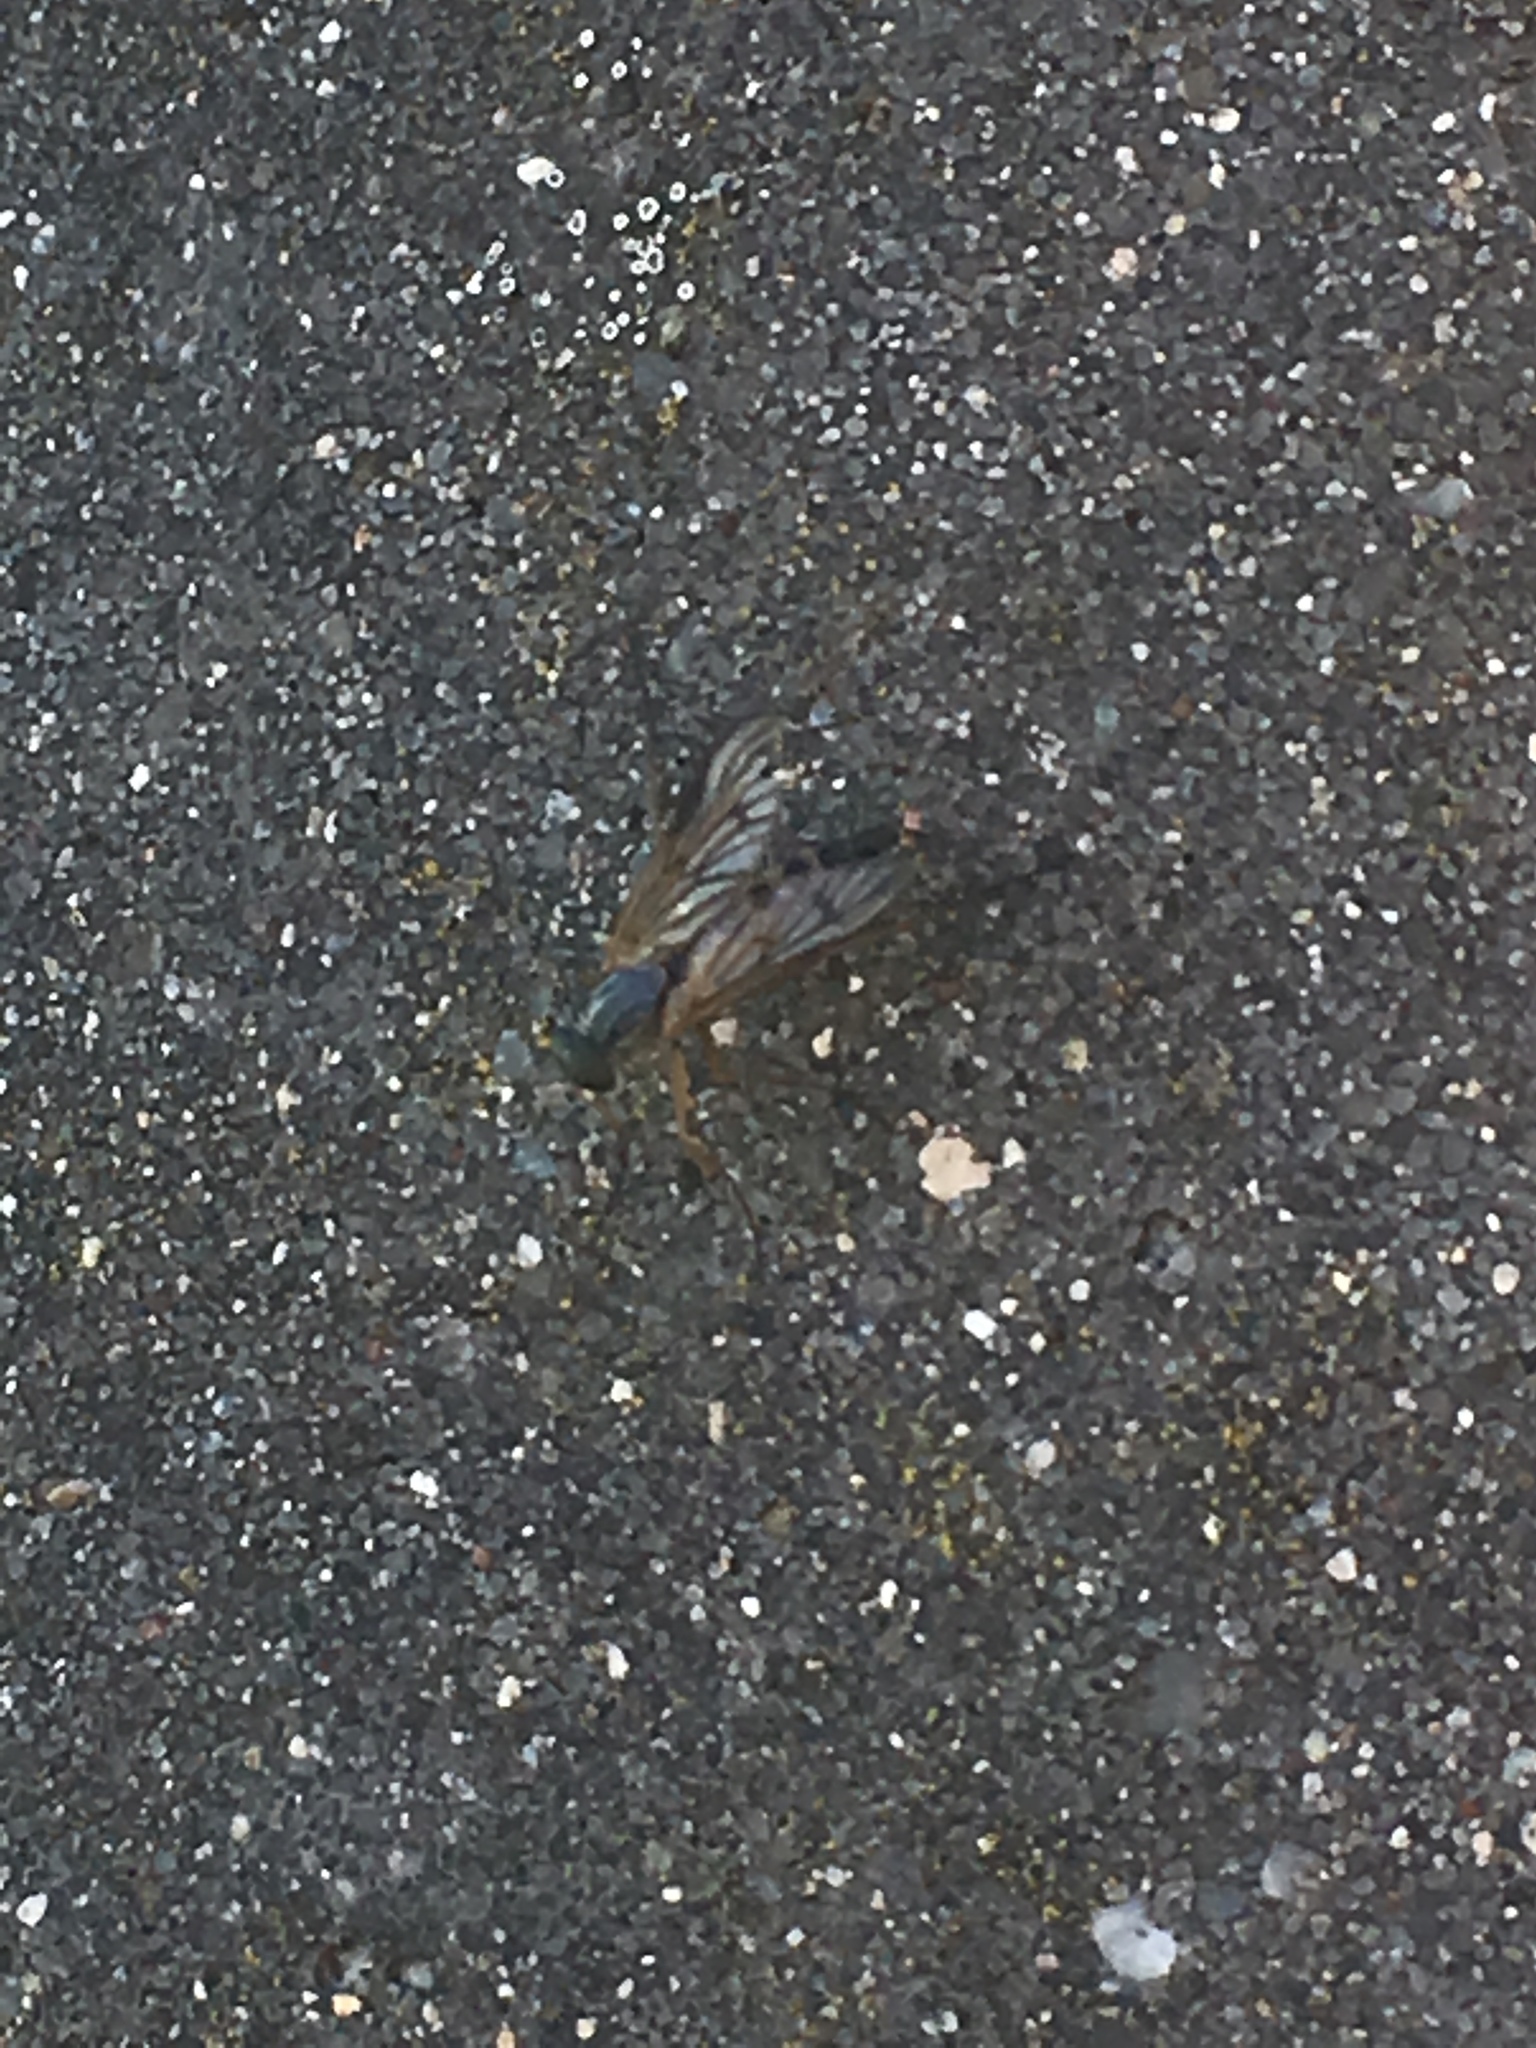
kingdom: Animalia
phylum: Arthropoda
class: Insecta
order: Diptera
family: Rhagionidae
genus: Rhagio
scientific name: Rhagio scolopacea
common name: Downlooker snipefly
